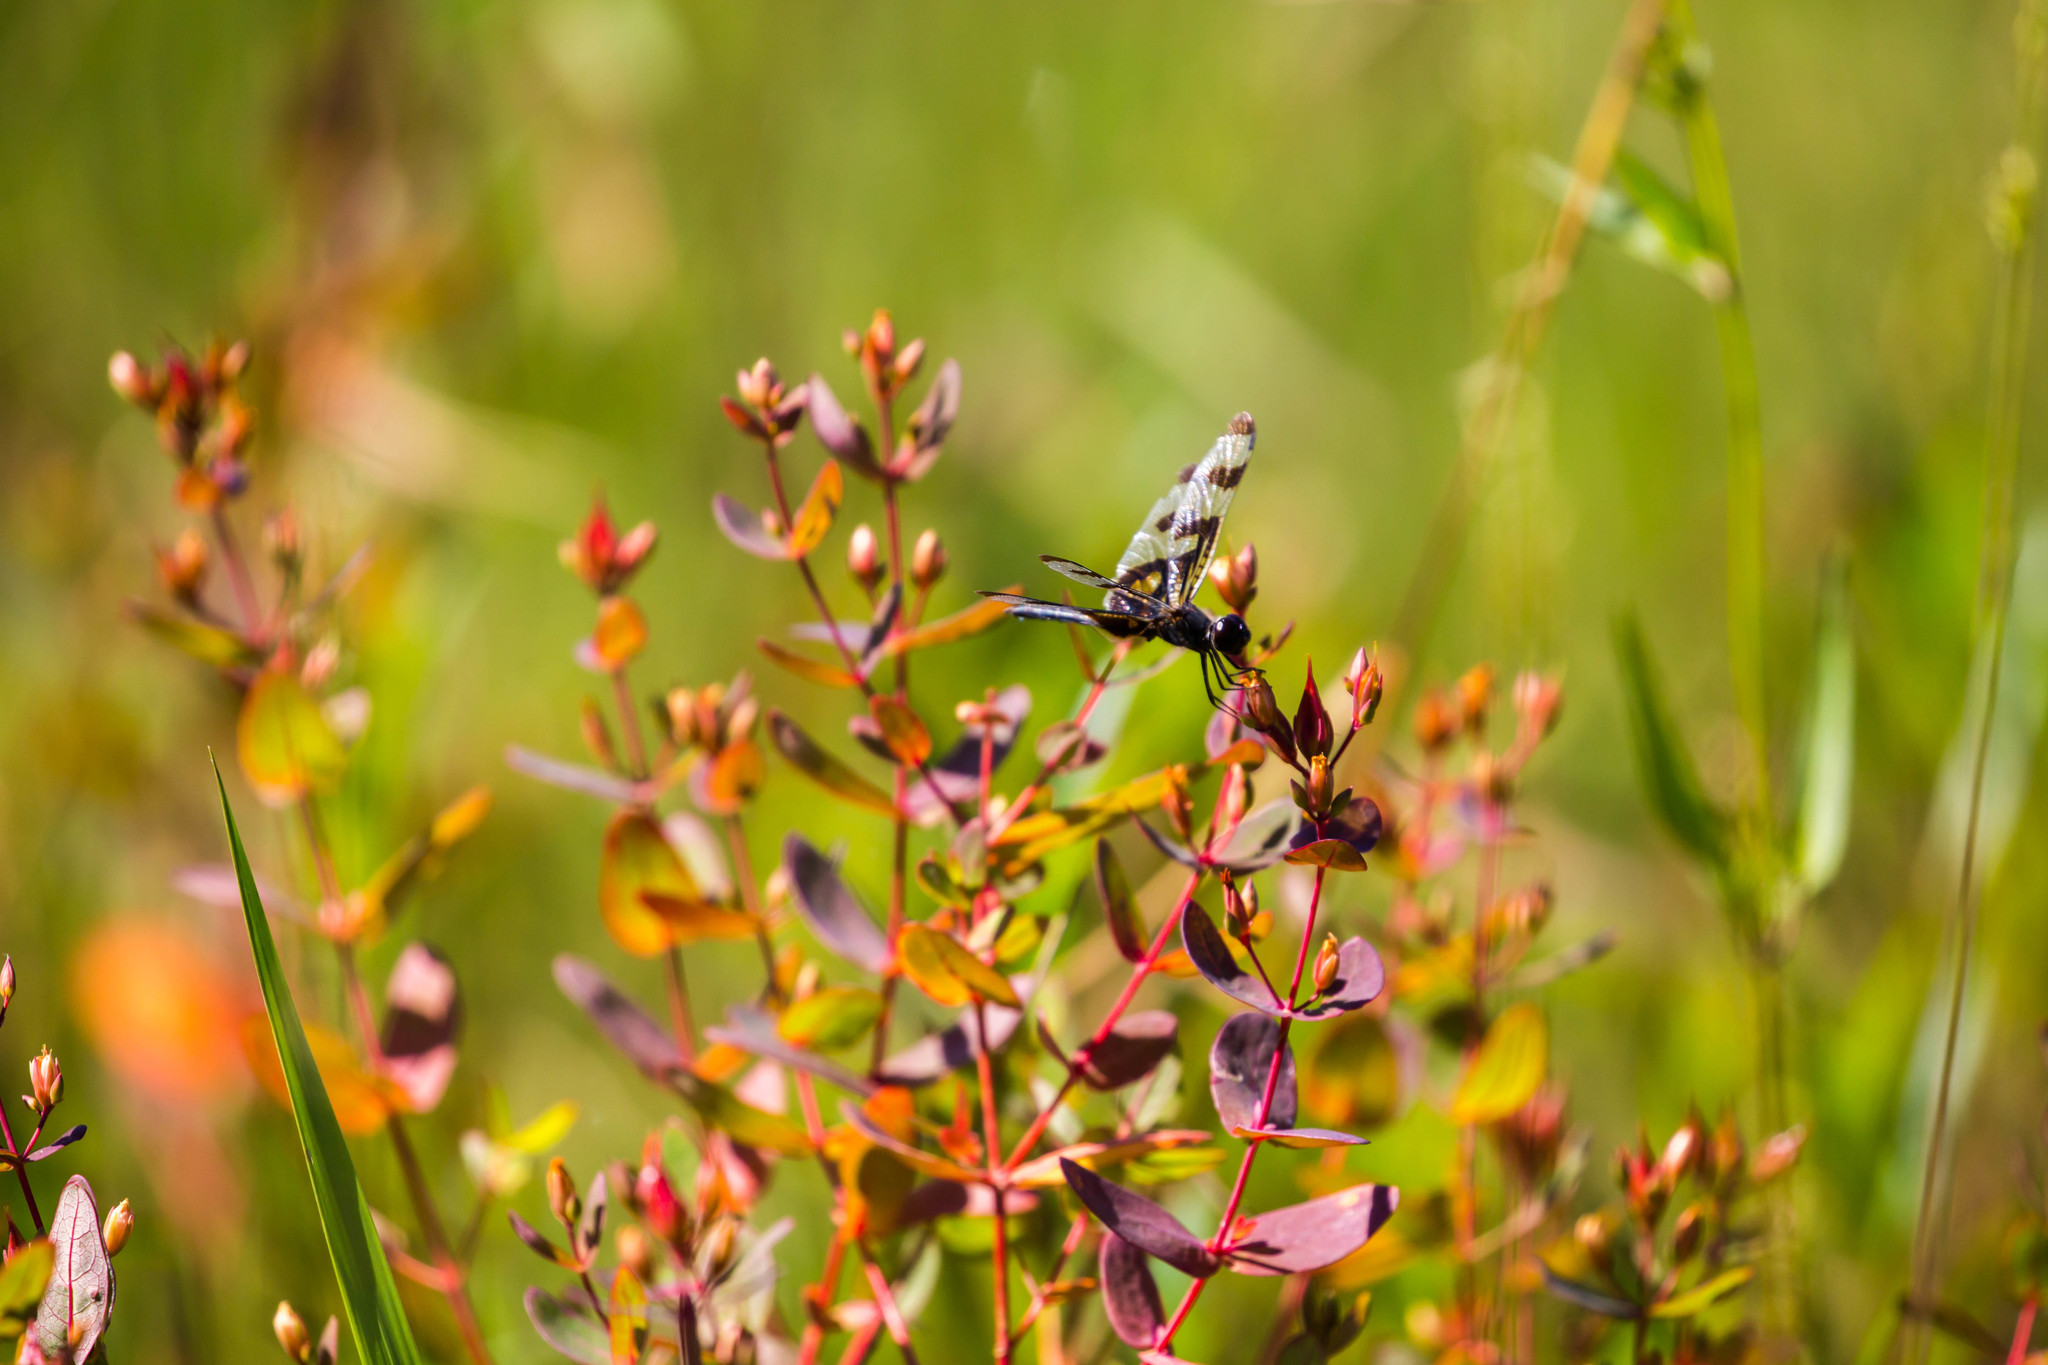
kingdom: Animalia
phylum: Arthropoda
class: Insecta
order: Odonata
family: Libellulidae
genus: Celithemis
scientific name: Celithemis fasciata
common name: Banded pennant
